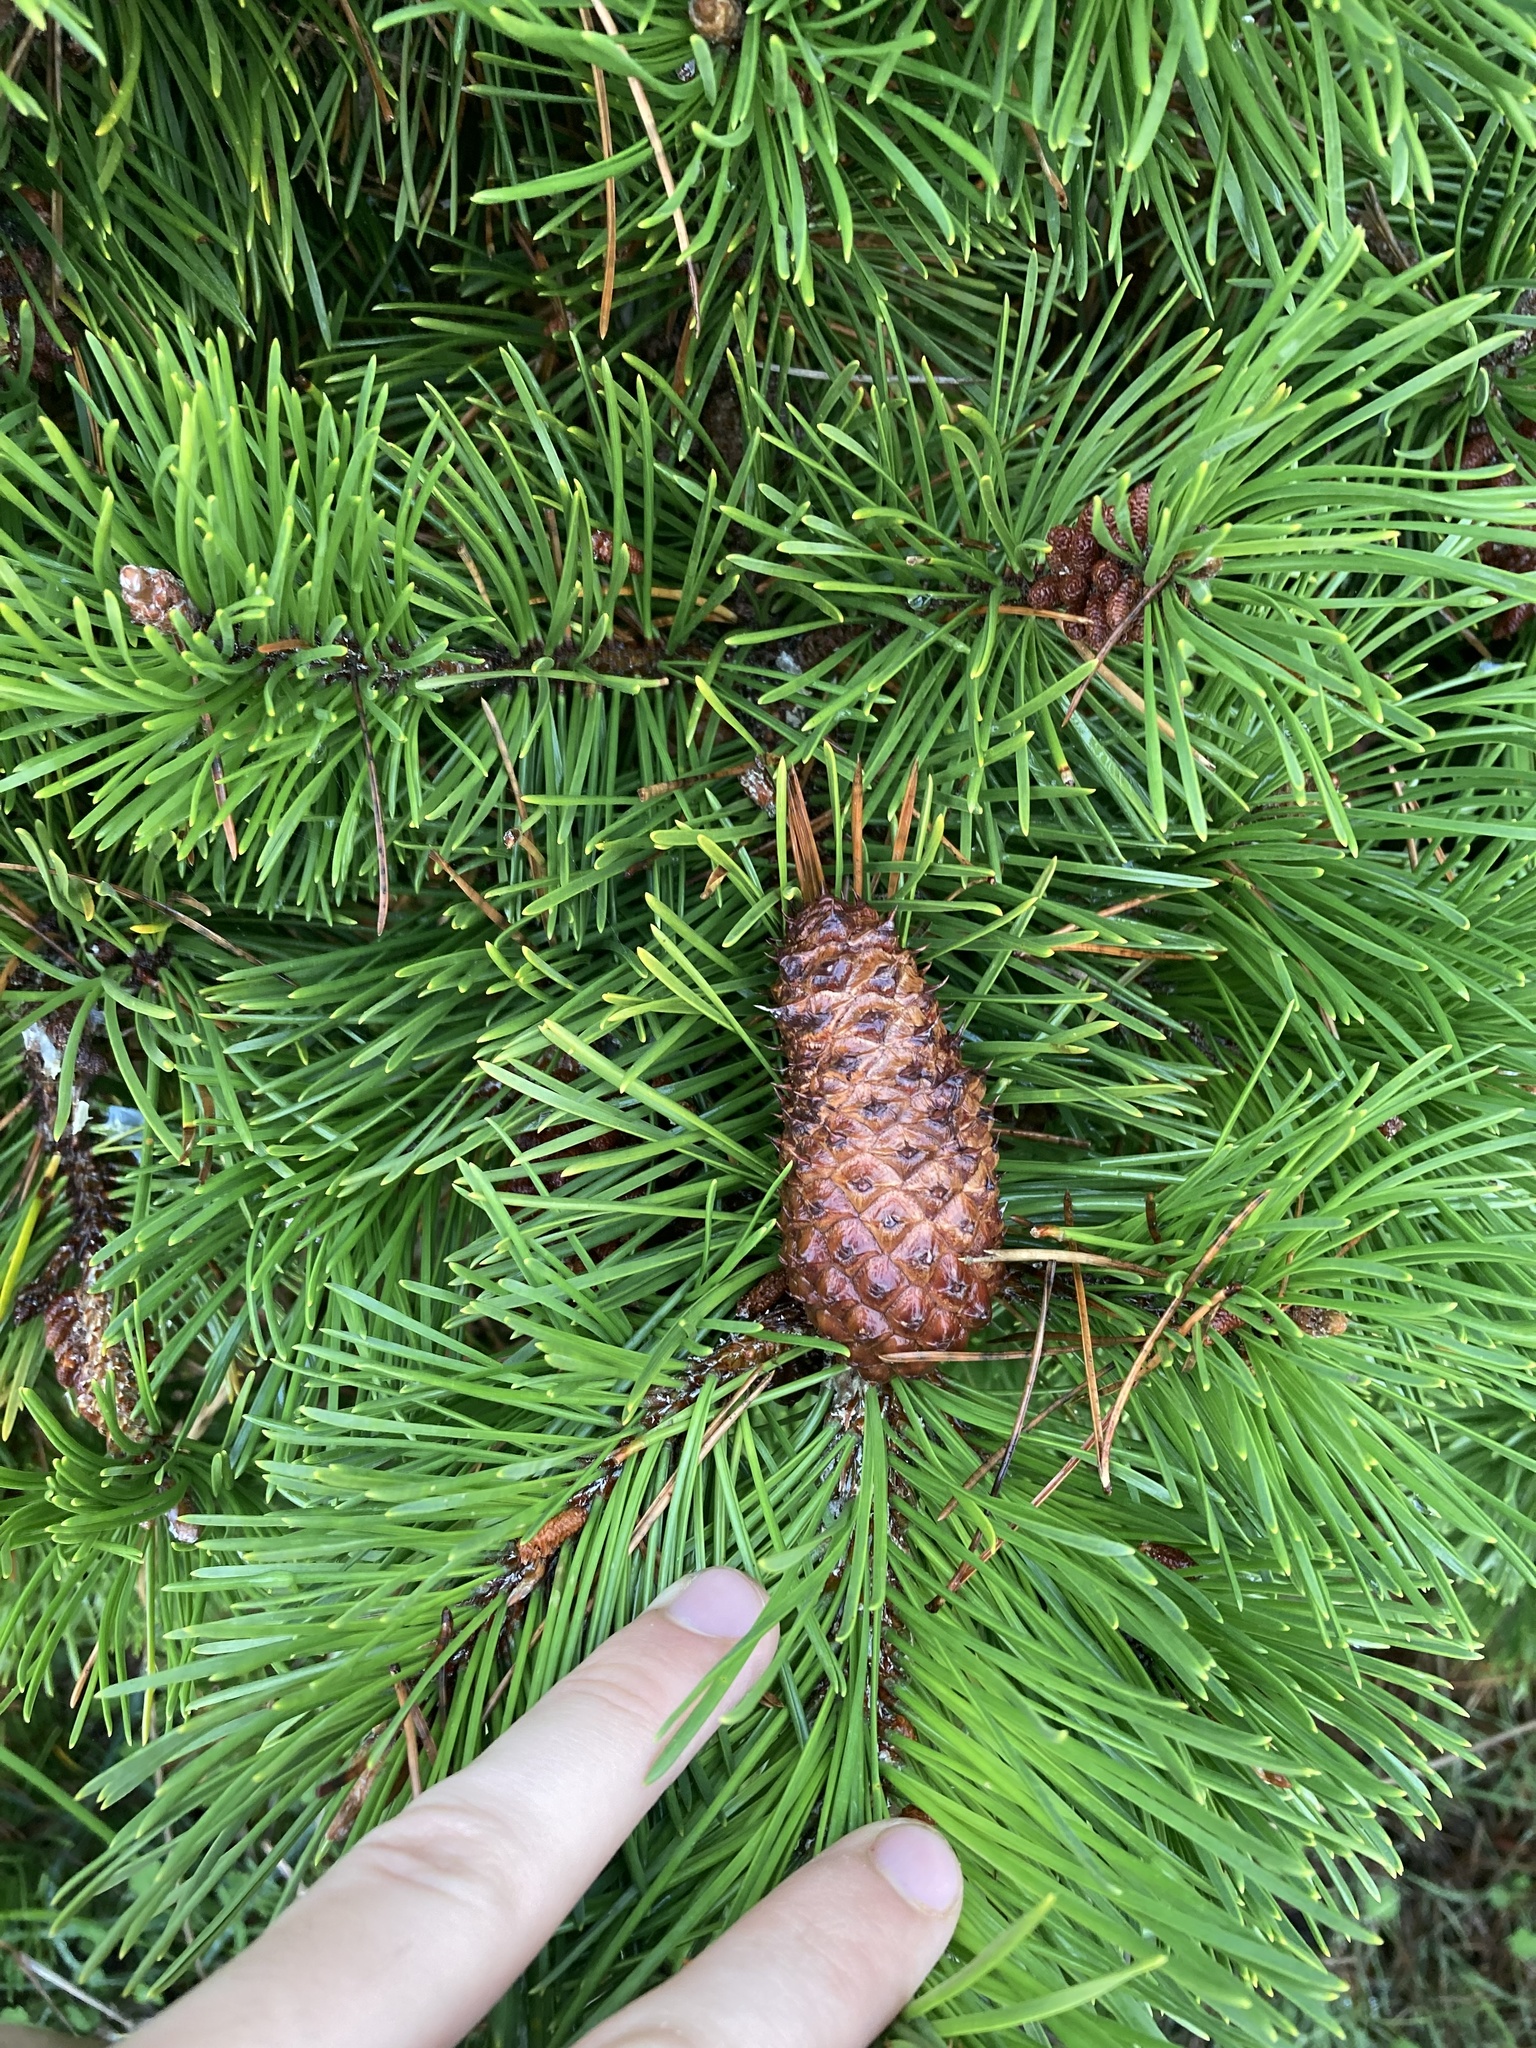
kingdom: Plantae
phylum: Tracheophyta
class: Pinopsida
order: Pinales
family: Pinaceae
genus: Pinus
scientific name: Pinus contorta
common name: Lodgepole pine
